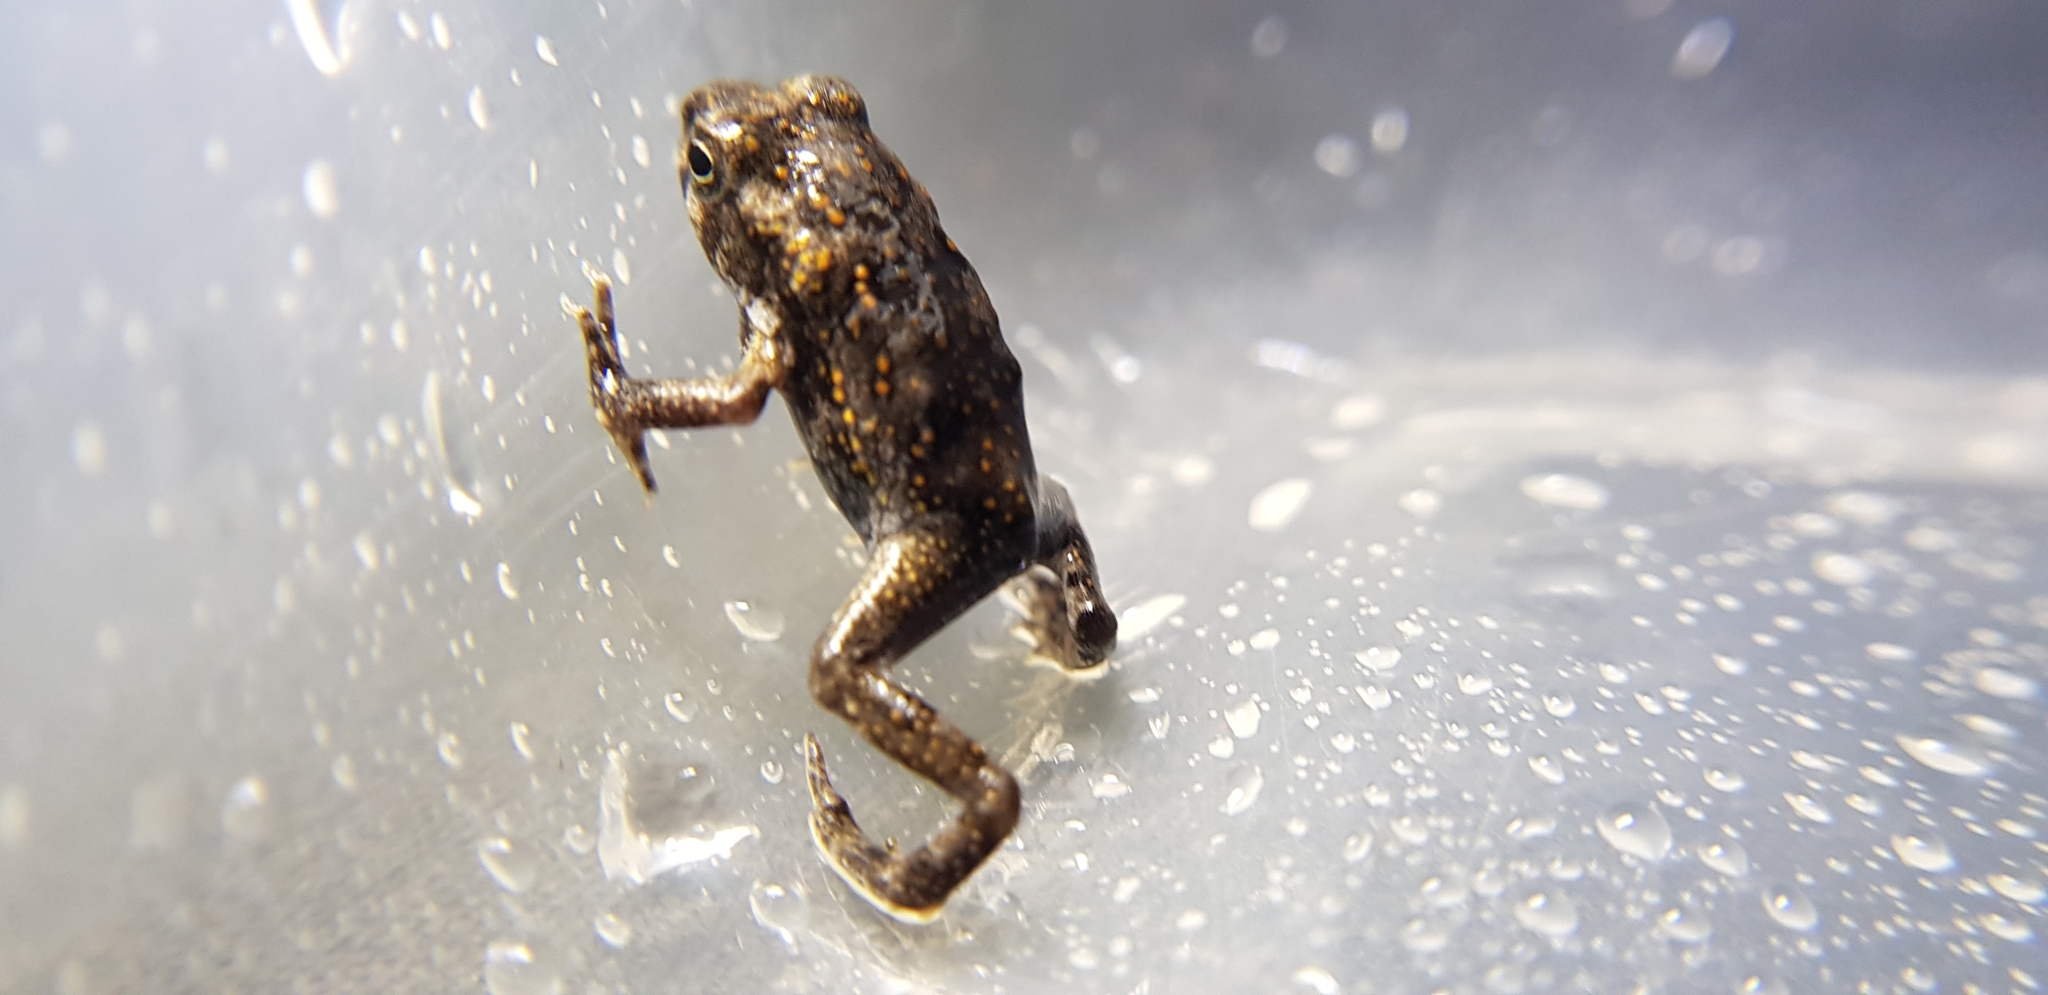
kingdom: Animalia
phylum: Chordata
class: Amphibia
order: Anura
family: Bufonidae
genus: Rhinella
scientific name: Rhinella marina
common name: Cane toad
